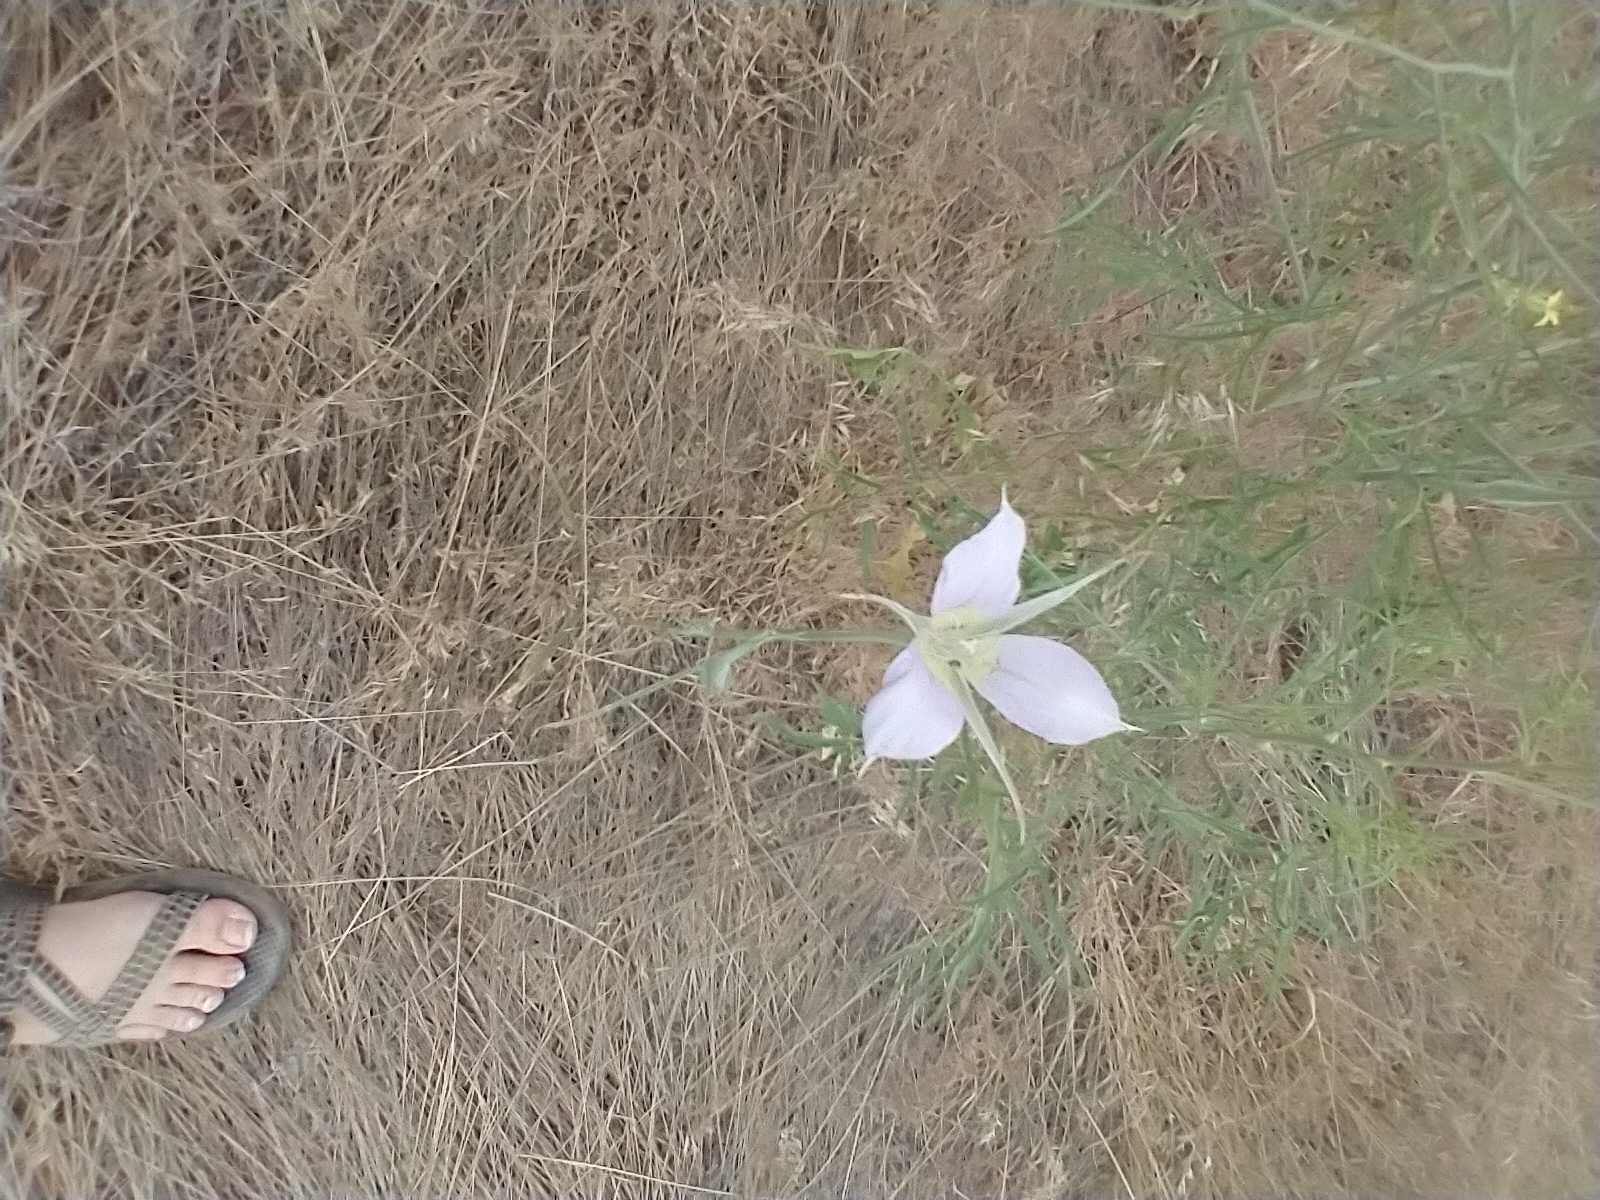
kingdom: Plantae
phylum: Tracheophyta
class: Liliopsida
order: Liliales
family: Liliaceae
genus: Calochortus
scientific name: Calochortus macrocarpus
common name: Green-band mariposa lily
